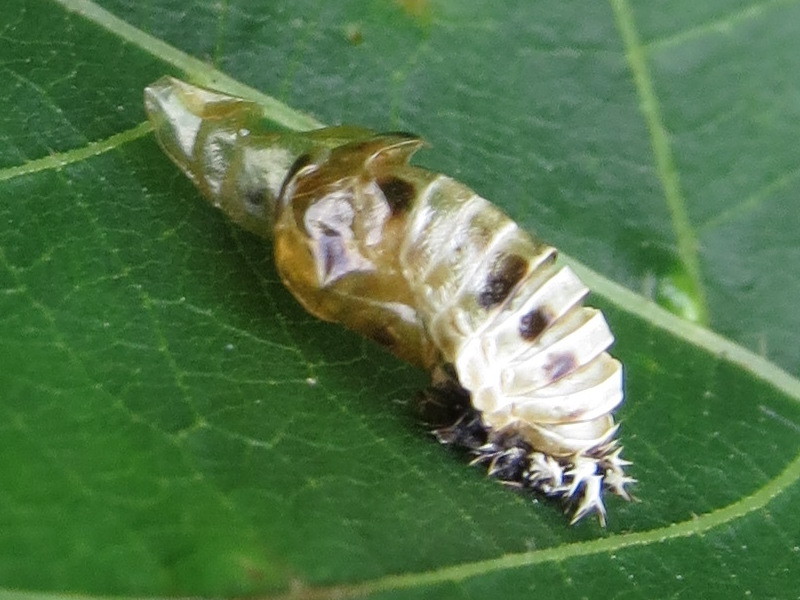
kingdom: Animalia
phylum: Arthropoda
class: Insecta
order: Coleoptera
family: Coccinellidae
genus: Harmonia
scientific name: Harmonia axyridis
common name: Harlequin ladybird
